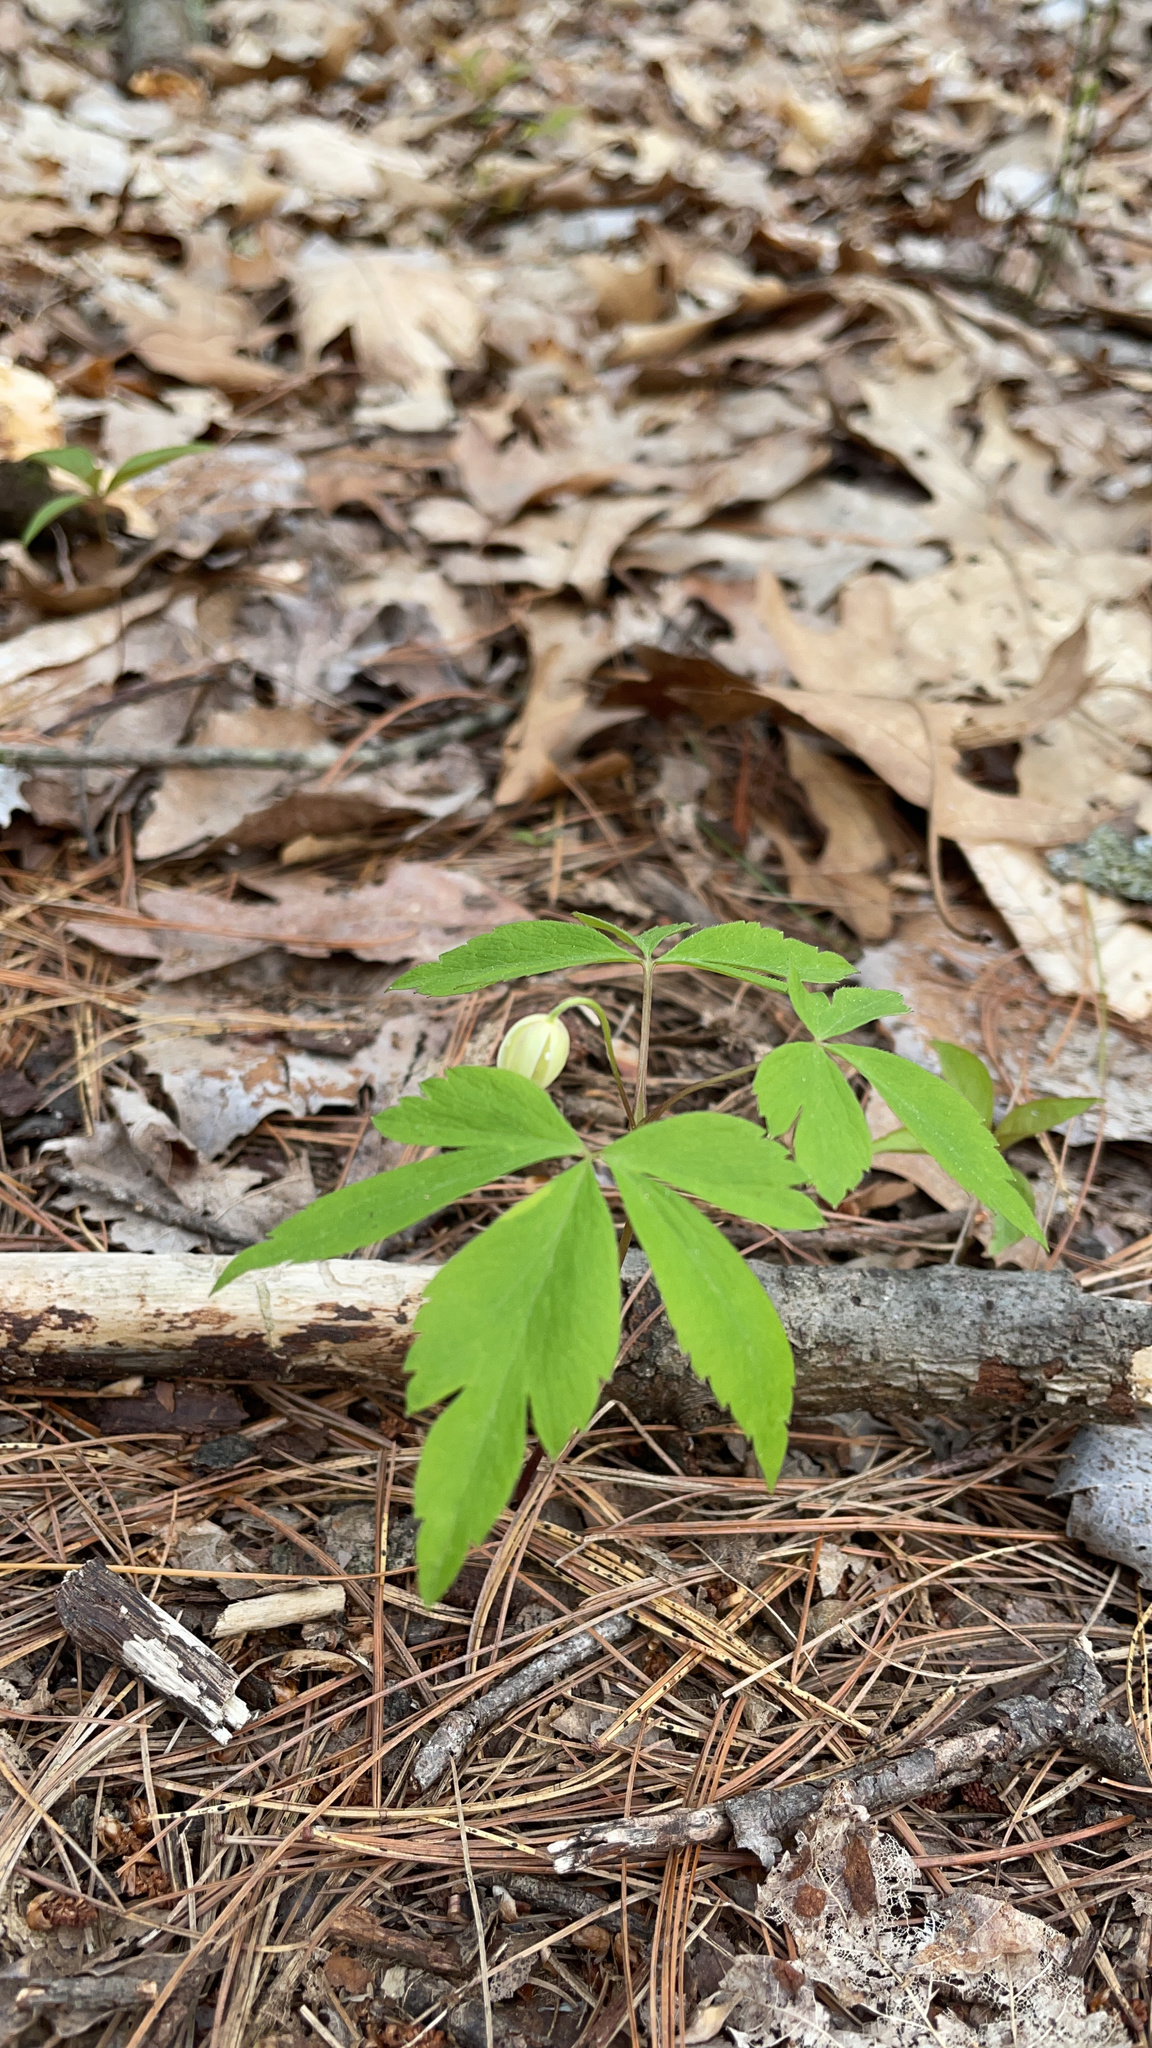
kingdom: Plantae
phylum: Tracheophyta
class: Magnoliopsida
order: Ranunculales
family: Ranunculaceae
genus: Anemone
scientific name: Anemone quinquefolia
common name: Wood anemone
